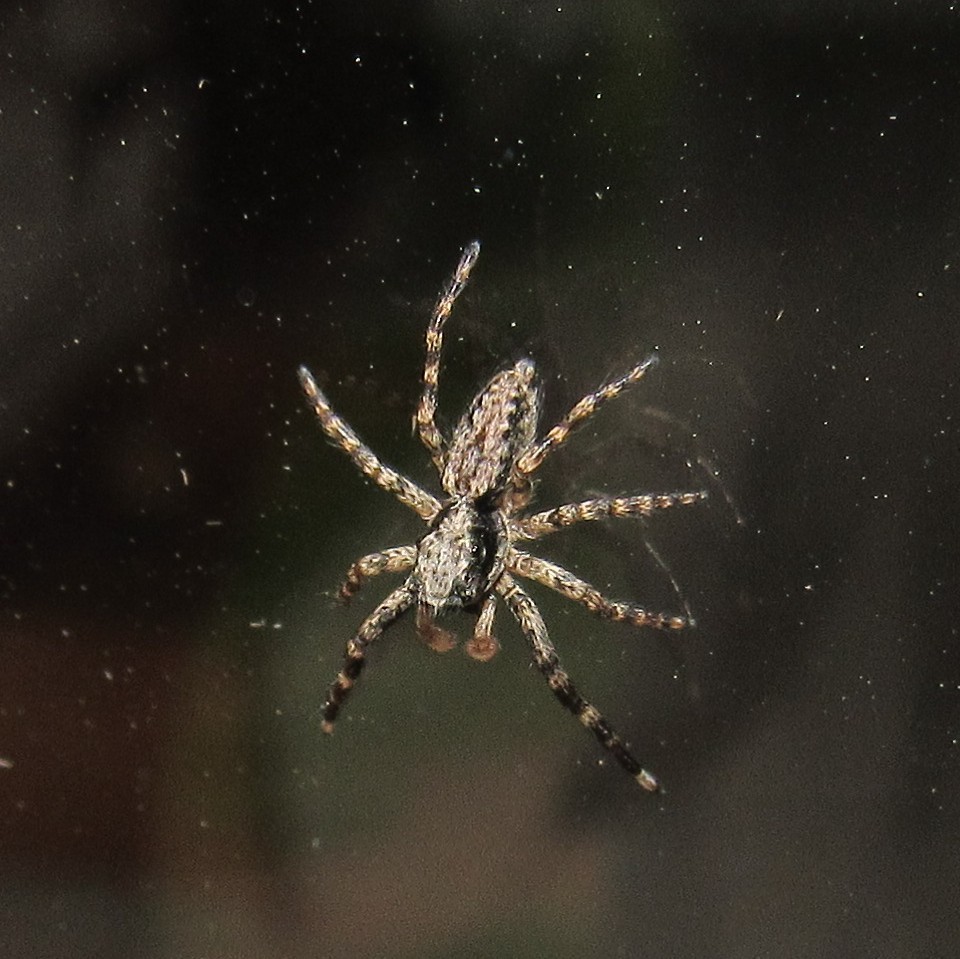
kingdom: Animalia
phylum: Arthropoda
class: Arachnida
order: Araneae
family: Salticidae
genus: Titanattus
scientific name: Titanattus andinus
